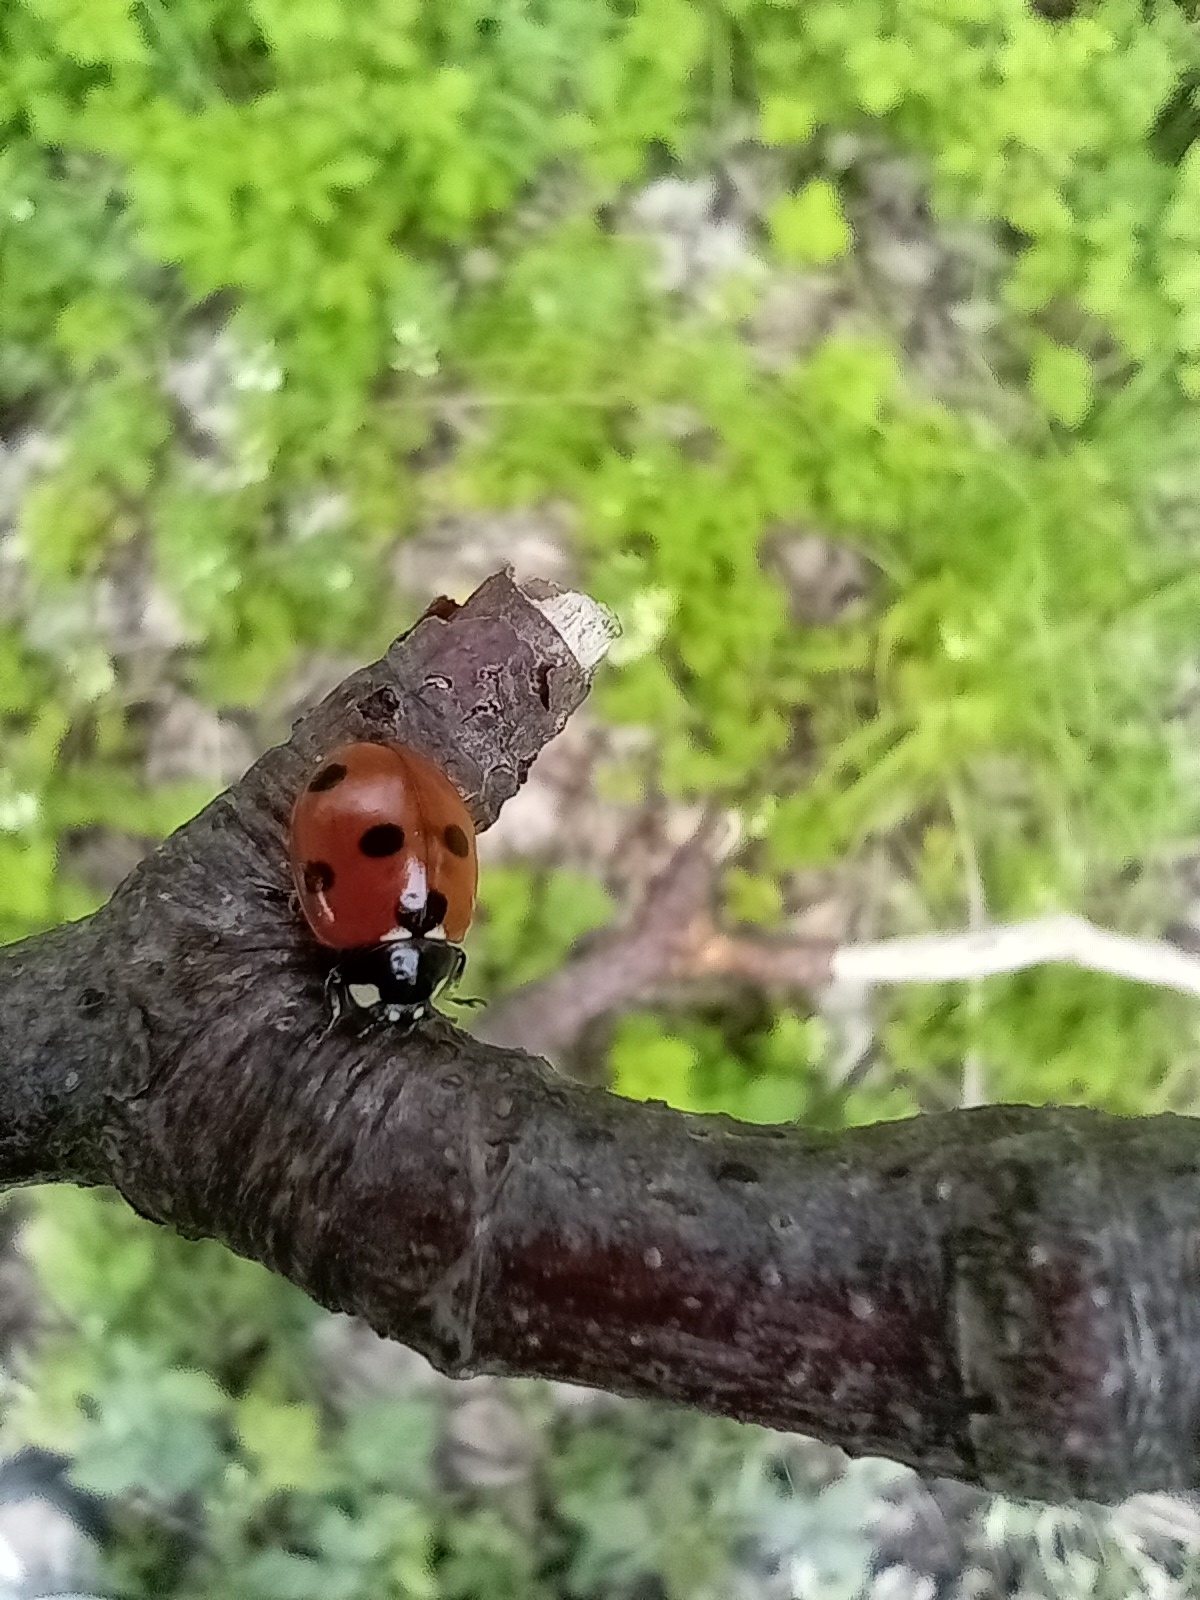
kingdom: Animalia
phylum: Arthropoda
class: Insecta
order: Coleoptera
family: Coccinellidae
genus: Coccinella
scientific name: Coccinella septempunctata
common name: Sevenspotted lady beetle
